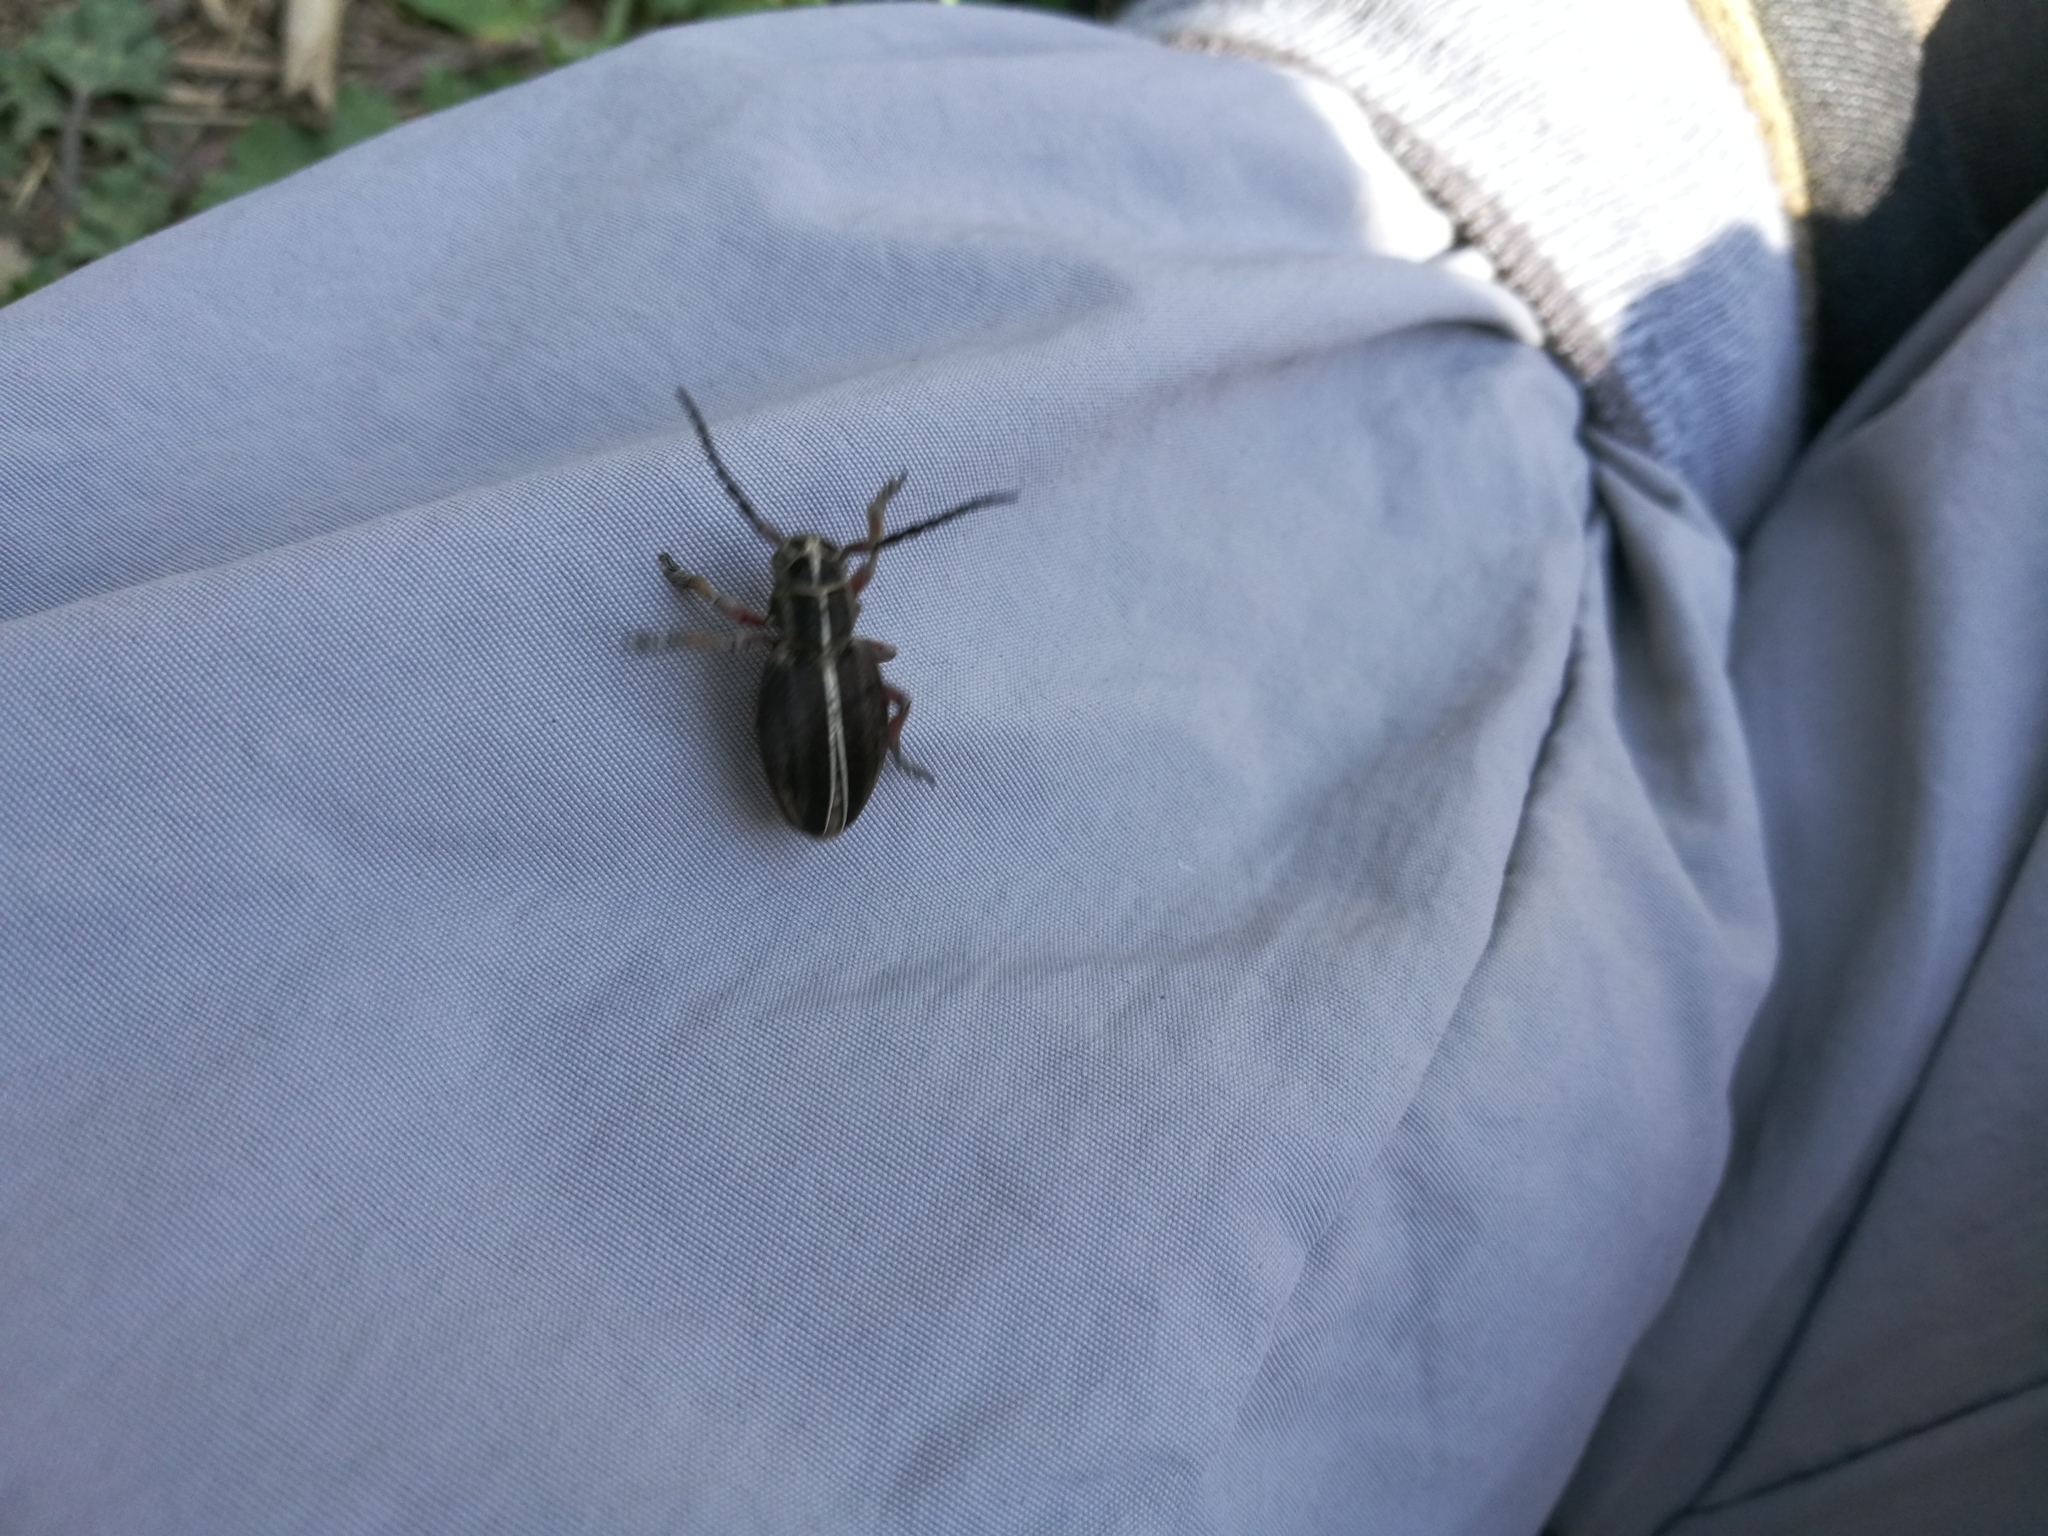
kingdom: Animalia
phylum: Arthropoda
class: Insecta
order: Coleoptera
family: Cerambycidae
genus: Dorcadion
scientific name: Dorcadion etruscum
